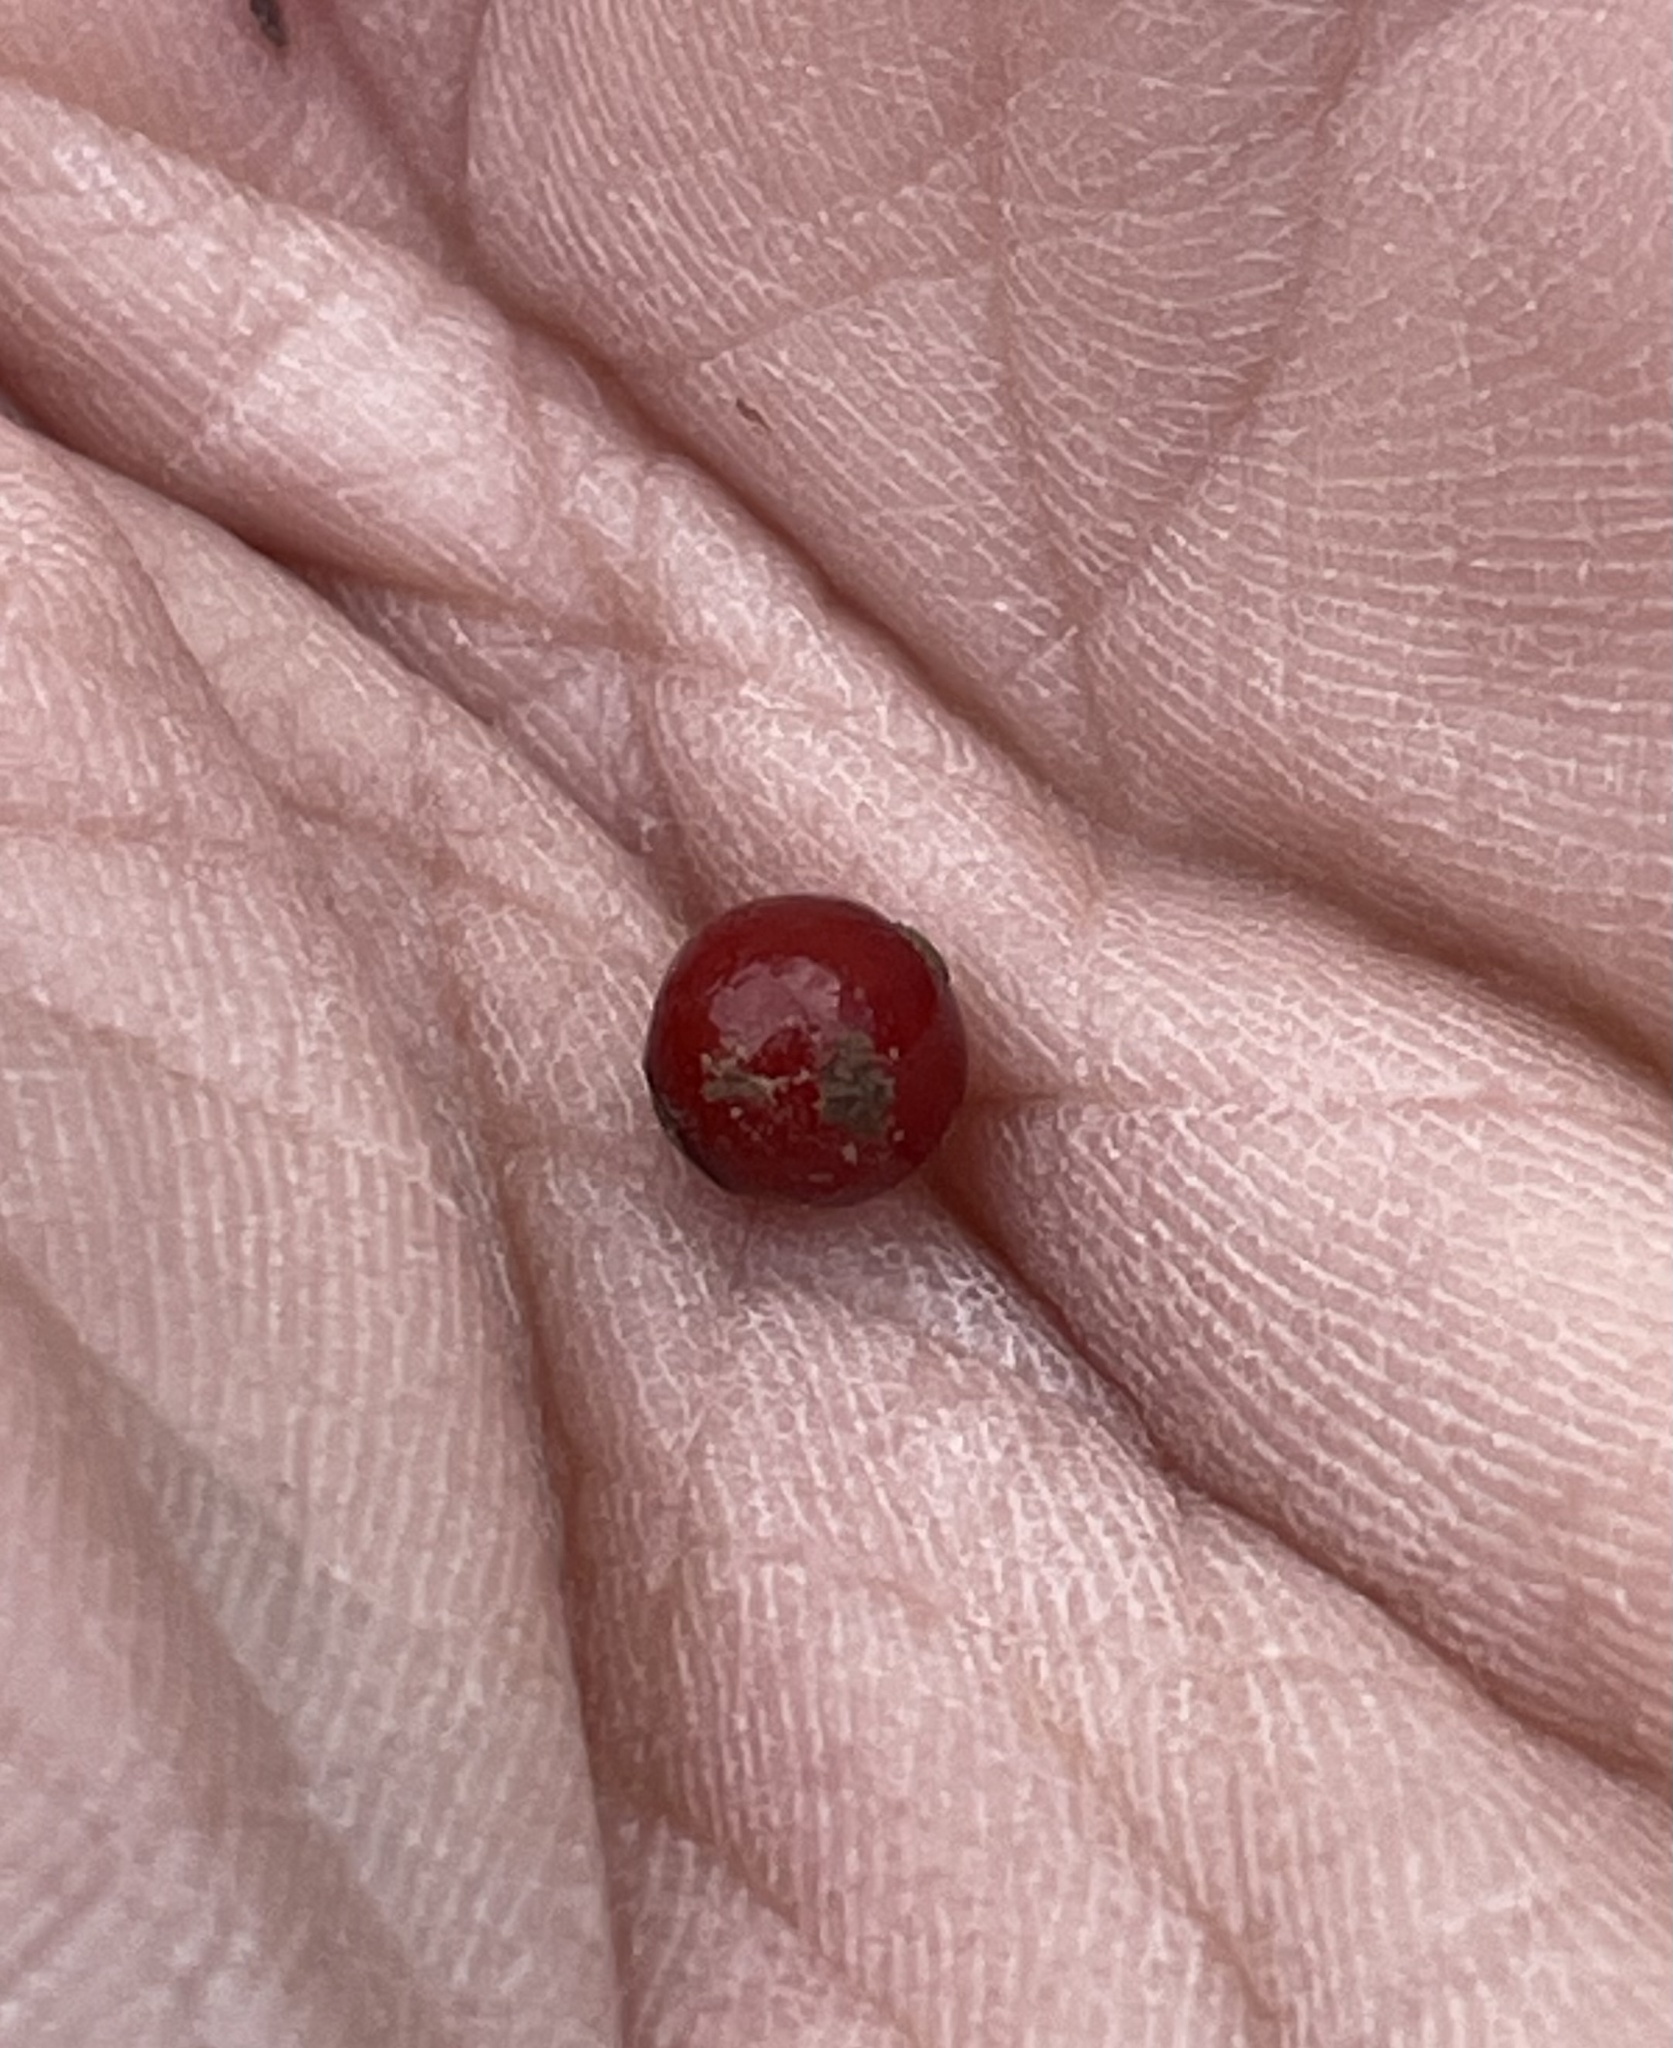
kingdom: Plantae
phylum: Tracheophyta
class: Magnoliopsida
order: Gentianales
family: Rubiaceae
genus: Mitchella
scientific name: Mitchella repens
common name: Partridge-berry
